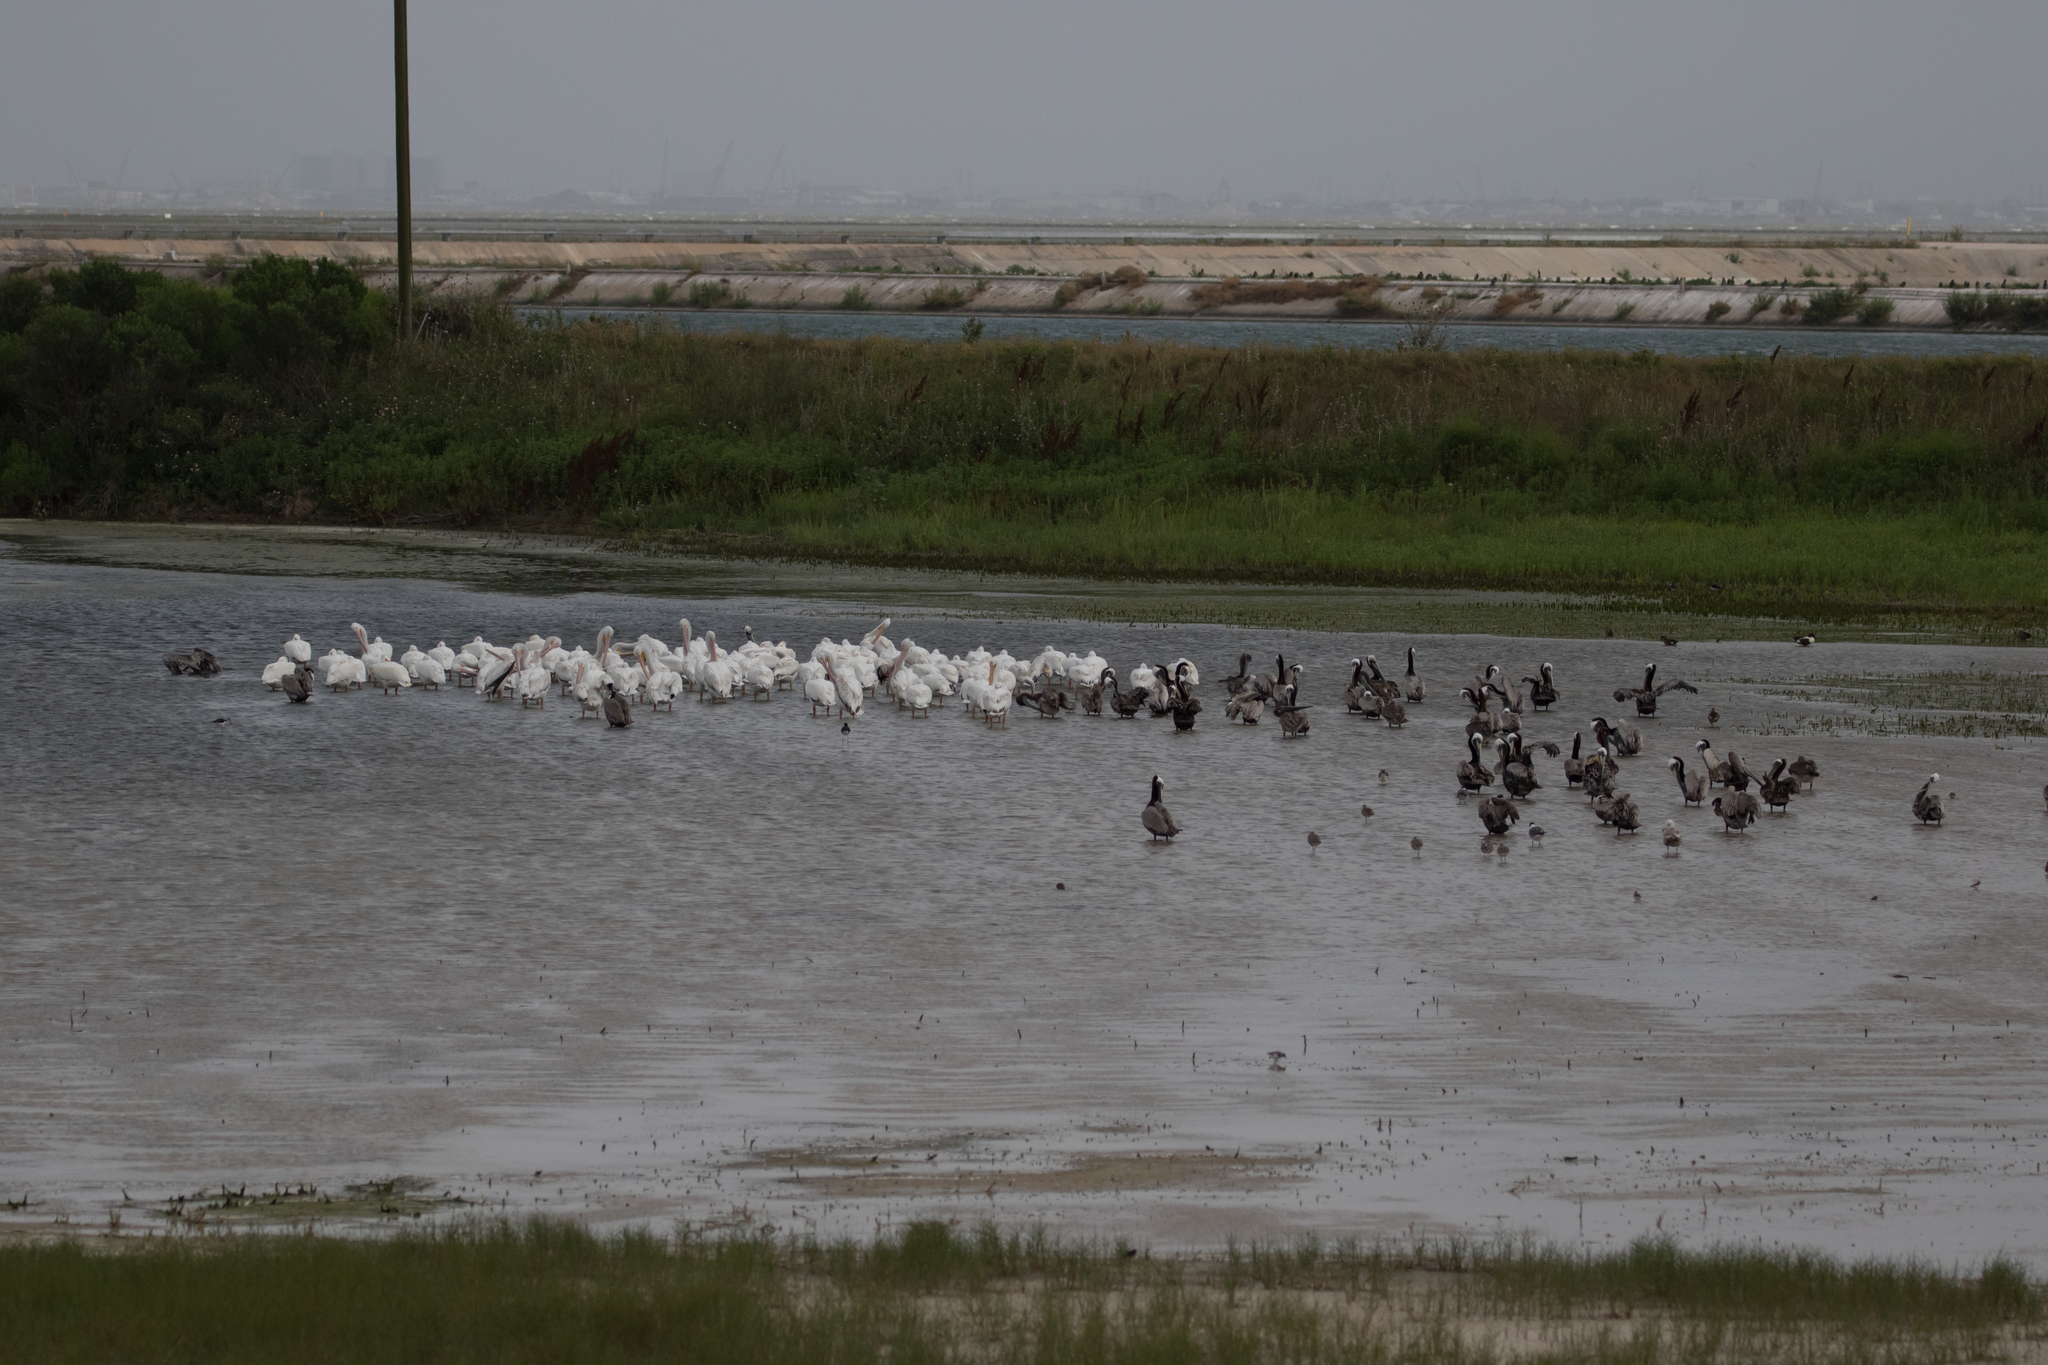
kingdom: Animalia
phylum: Chordata
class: Aves
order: Pelecaniformes
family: Pelecanidae
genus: Pelecanus
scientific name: Pelecanus occidentalis
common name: Brown pelican
